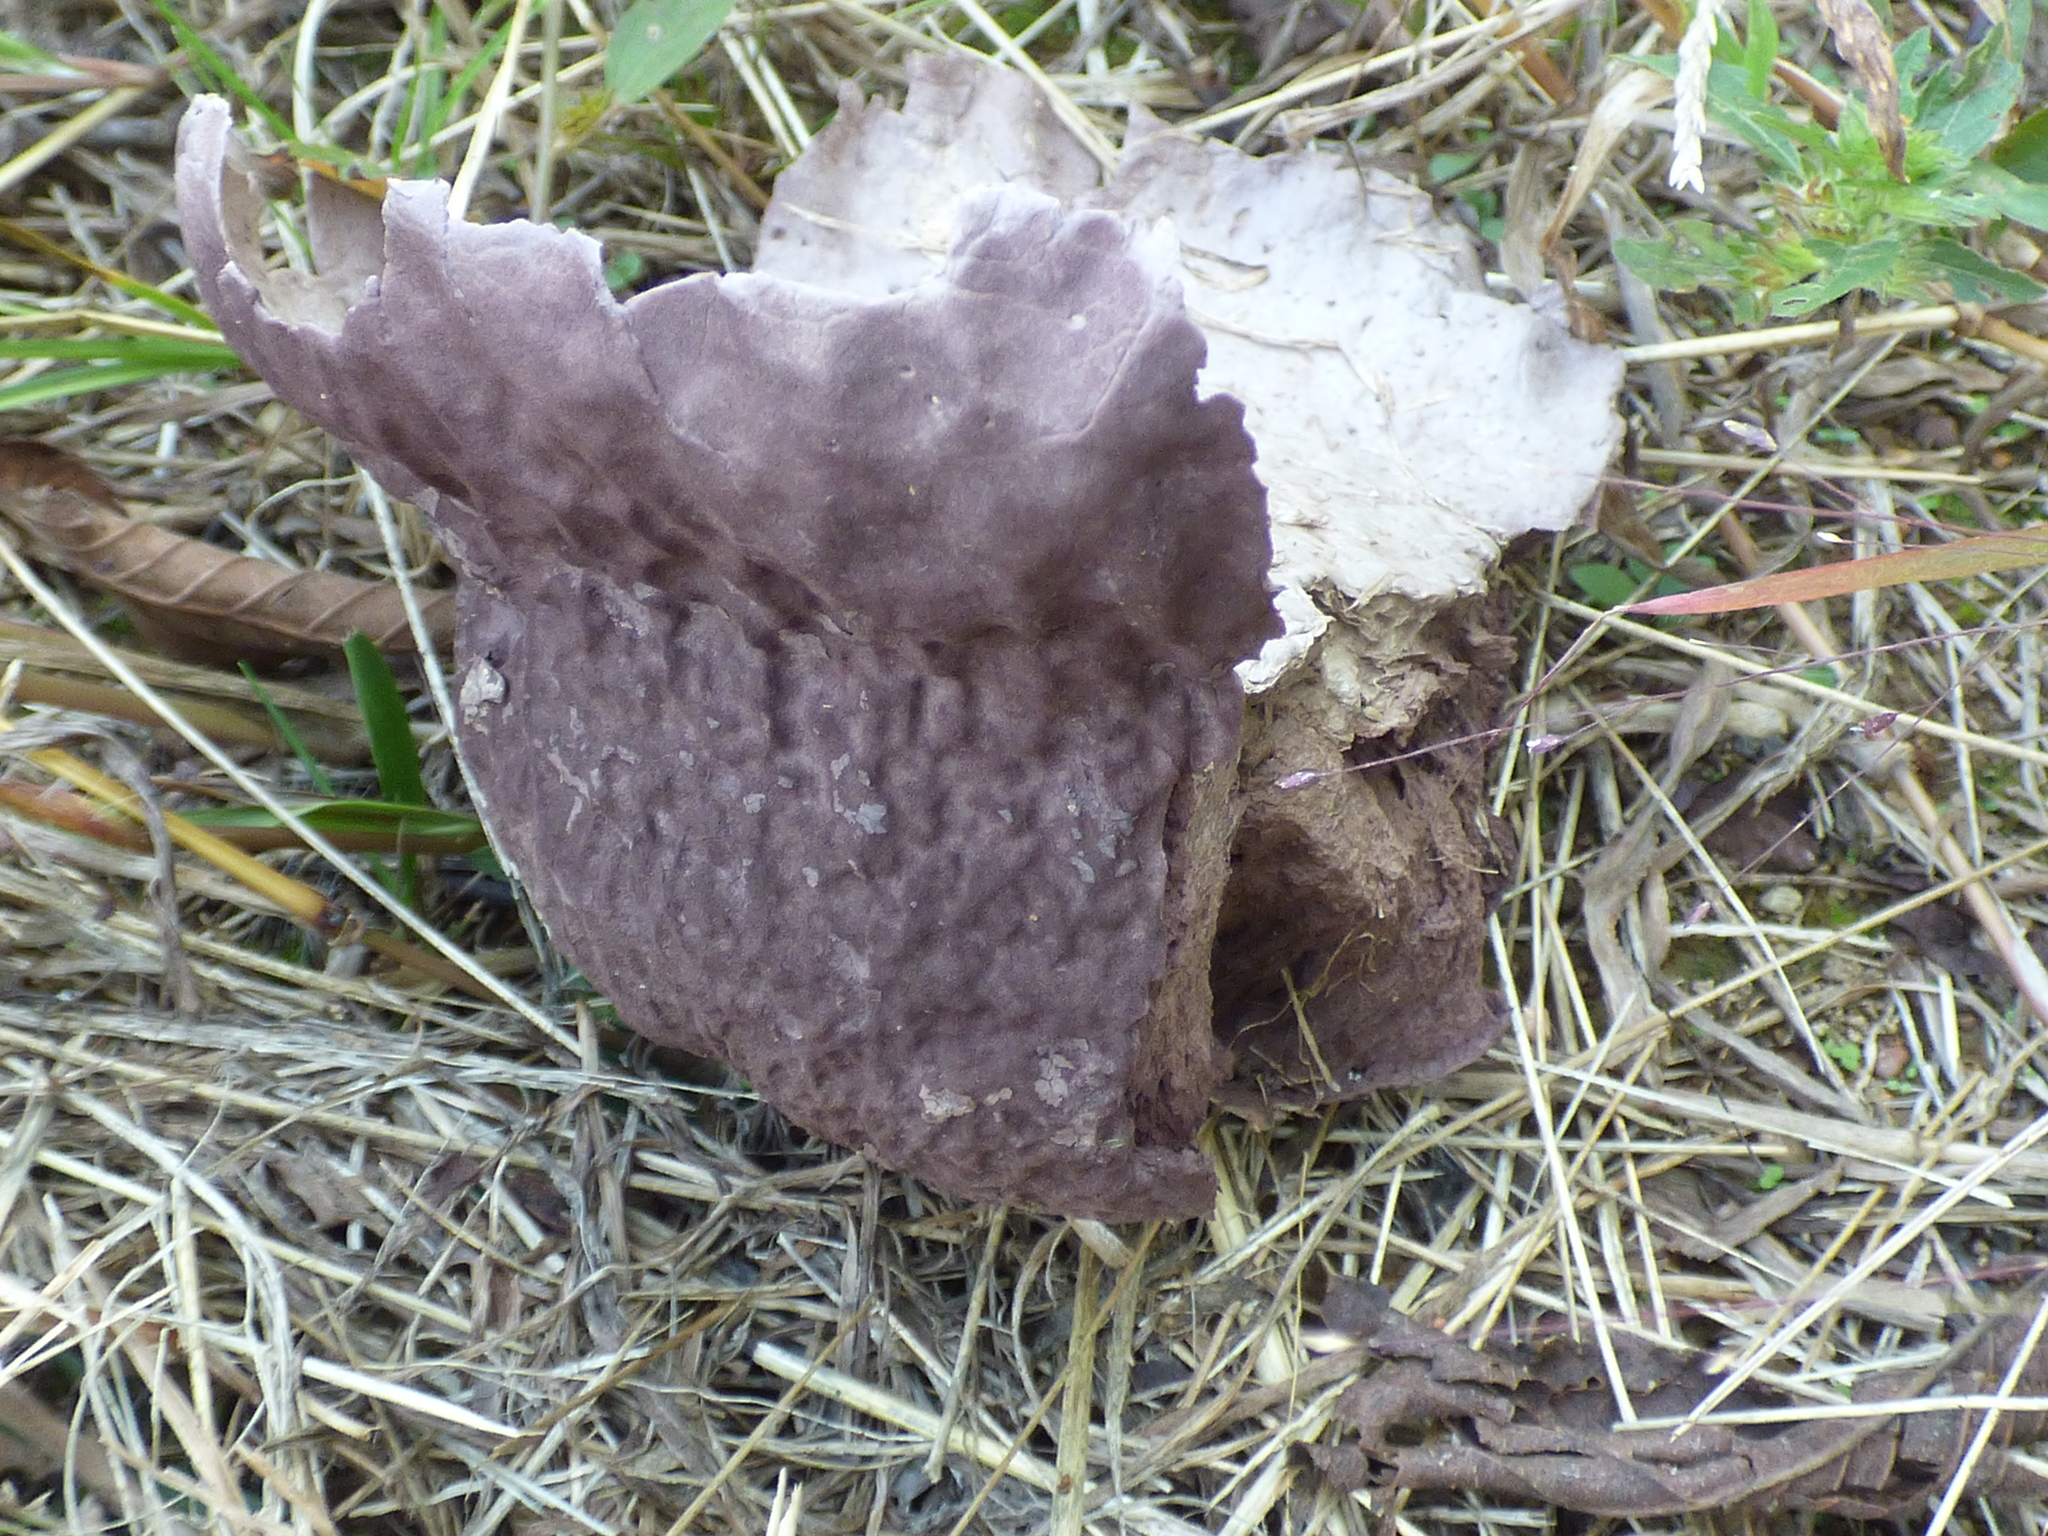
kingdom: Fungi
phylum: Basidiomycota
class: Agaricomycetes
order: Agaricales
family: Lycoperdaceae
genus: Calvatia
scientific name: Calvatia cyathiformis
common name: Purple-spored puffball
